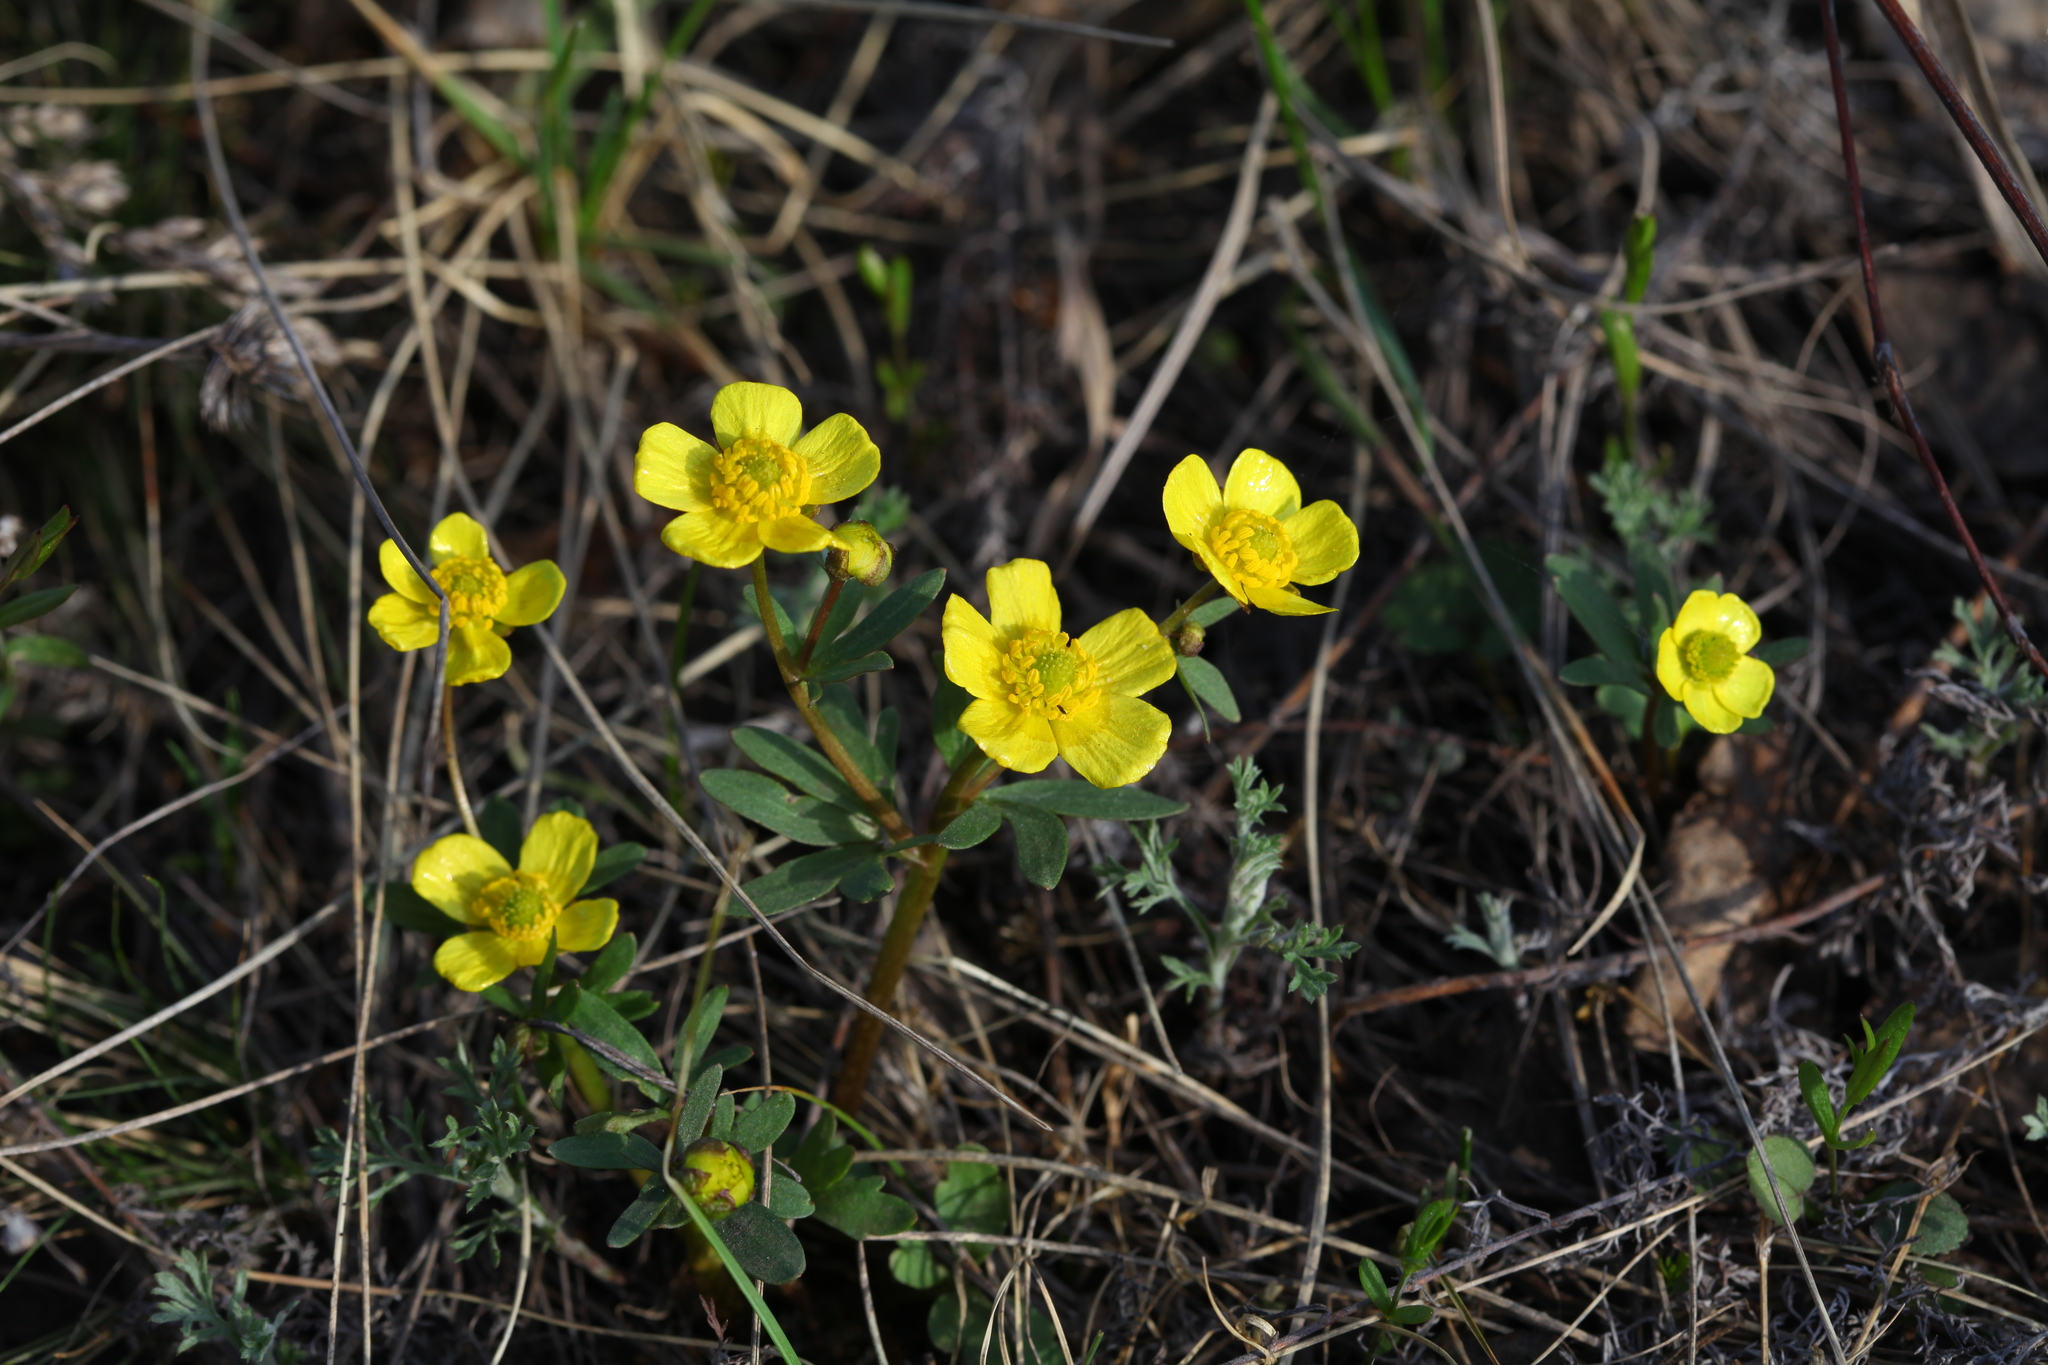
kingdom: Plantae
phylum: Tracheophyta
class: Magnoliopsida
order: Ranunculales
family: Ranunculaceae
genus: Ranunculus
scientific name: Ranunculus polyrhizos
